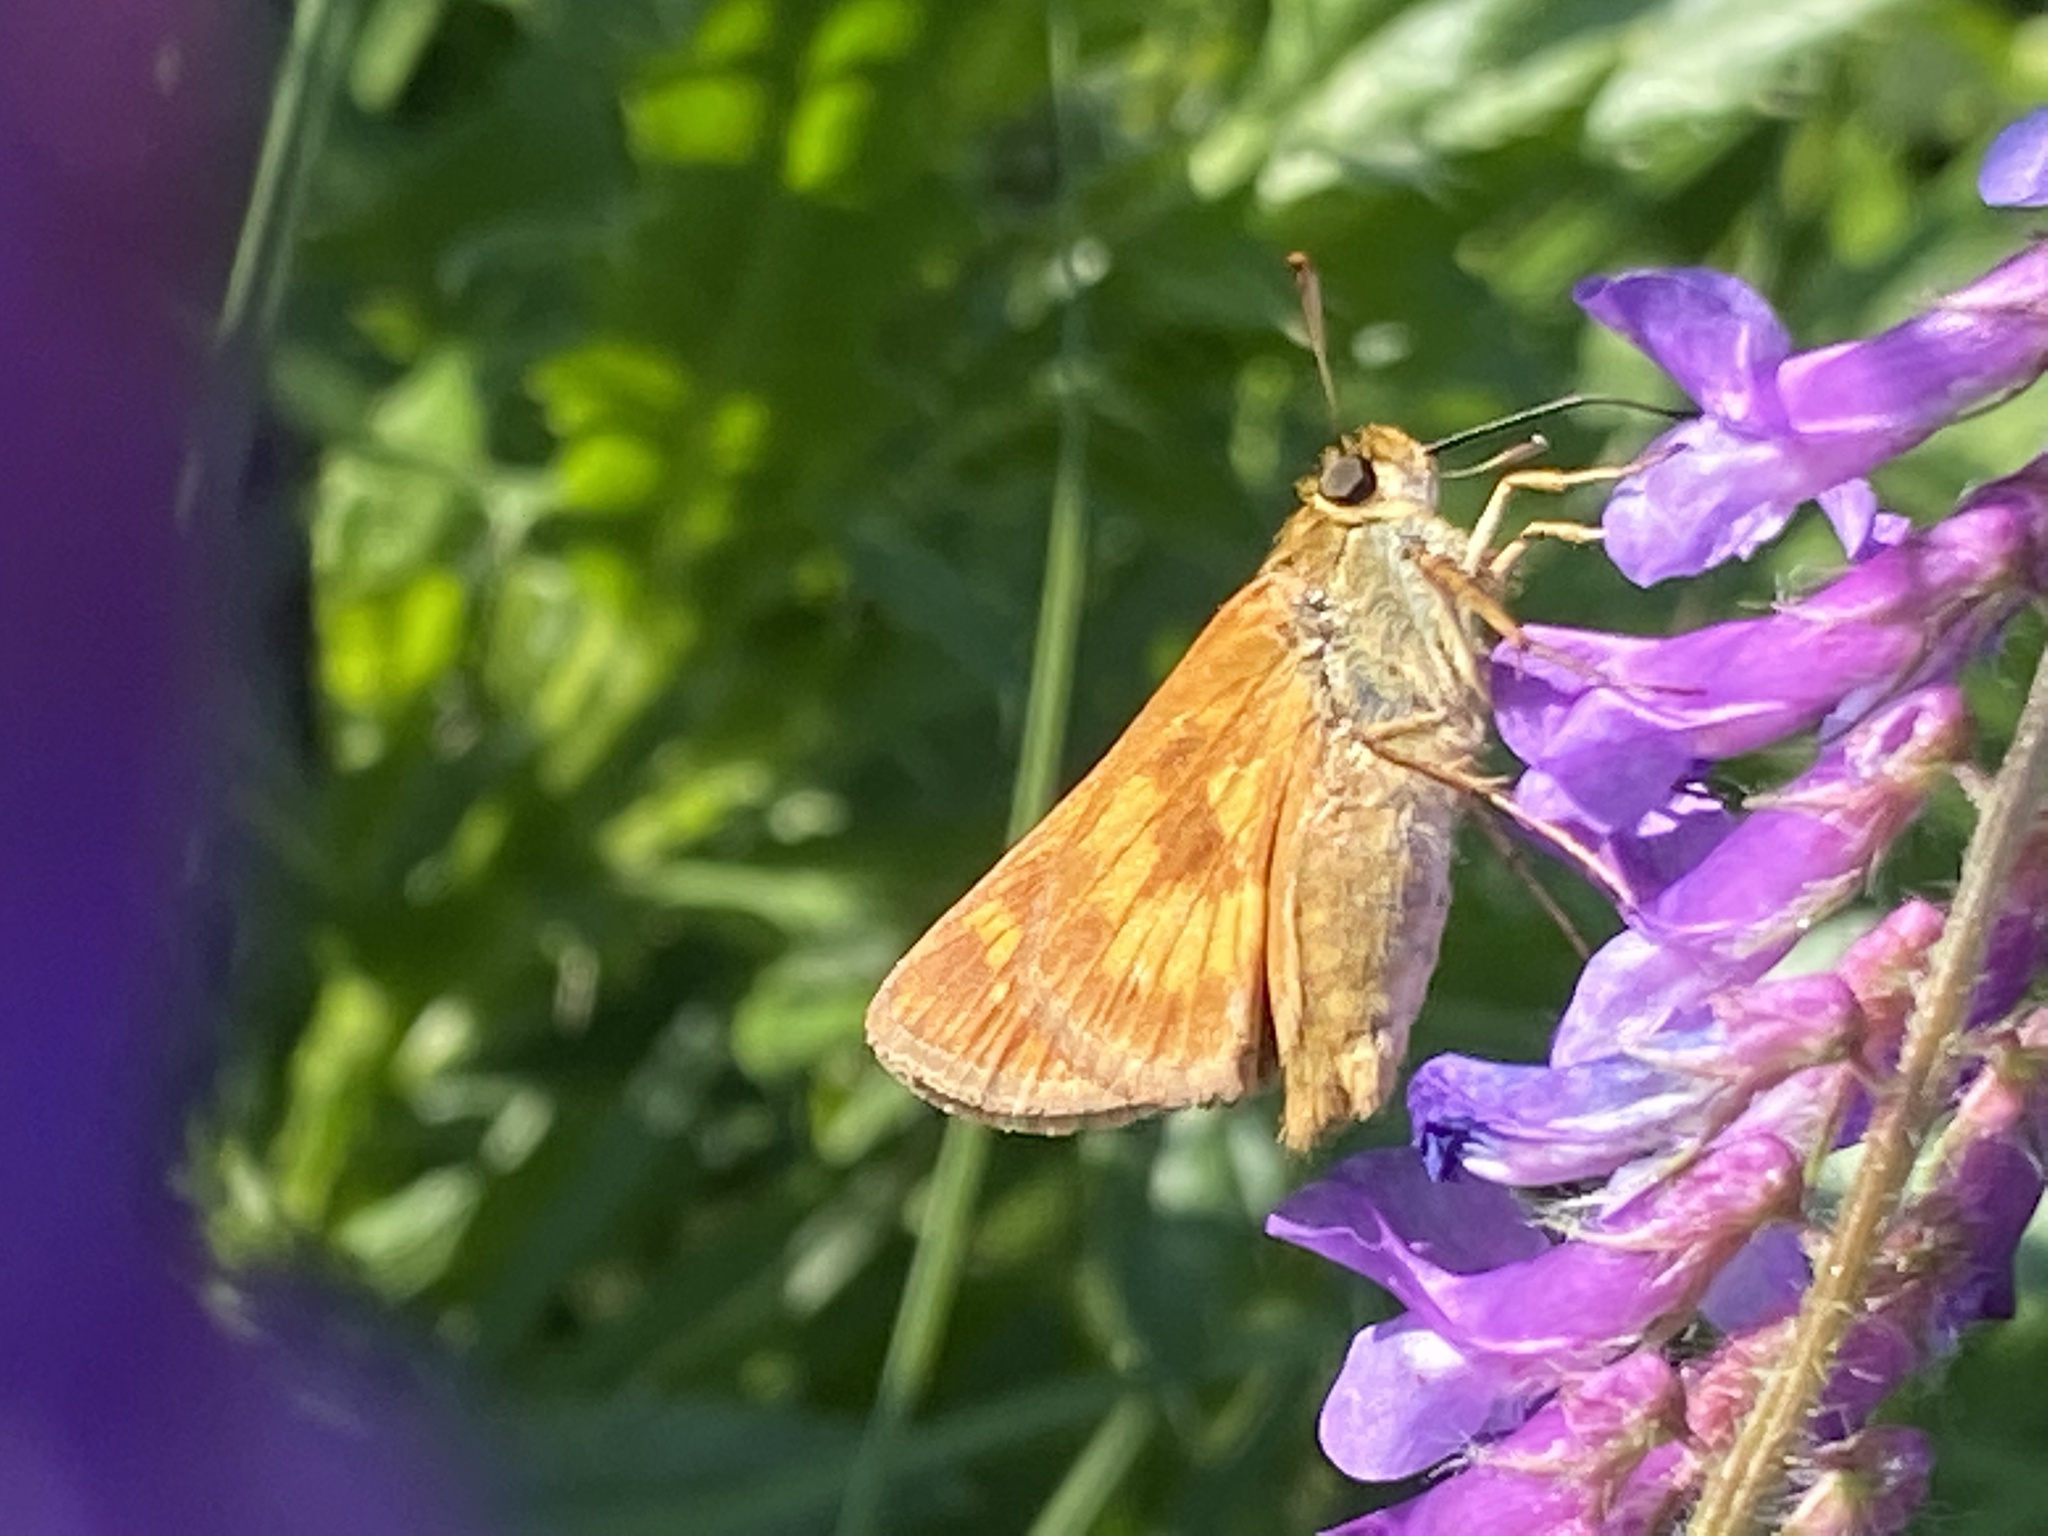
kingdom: Animalia
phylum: Arthropoda
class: Insecta
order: Lepidoptera
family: Hesperiidae
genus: Polites
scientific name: Polites mystic
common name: Long dash
